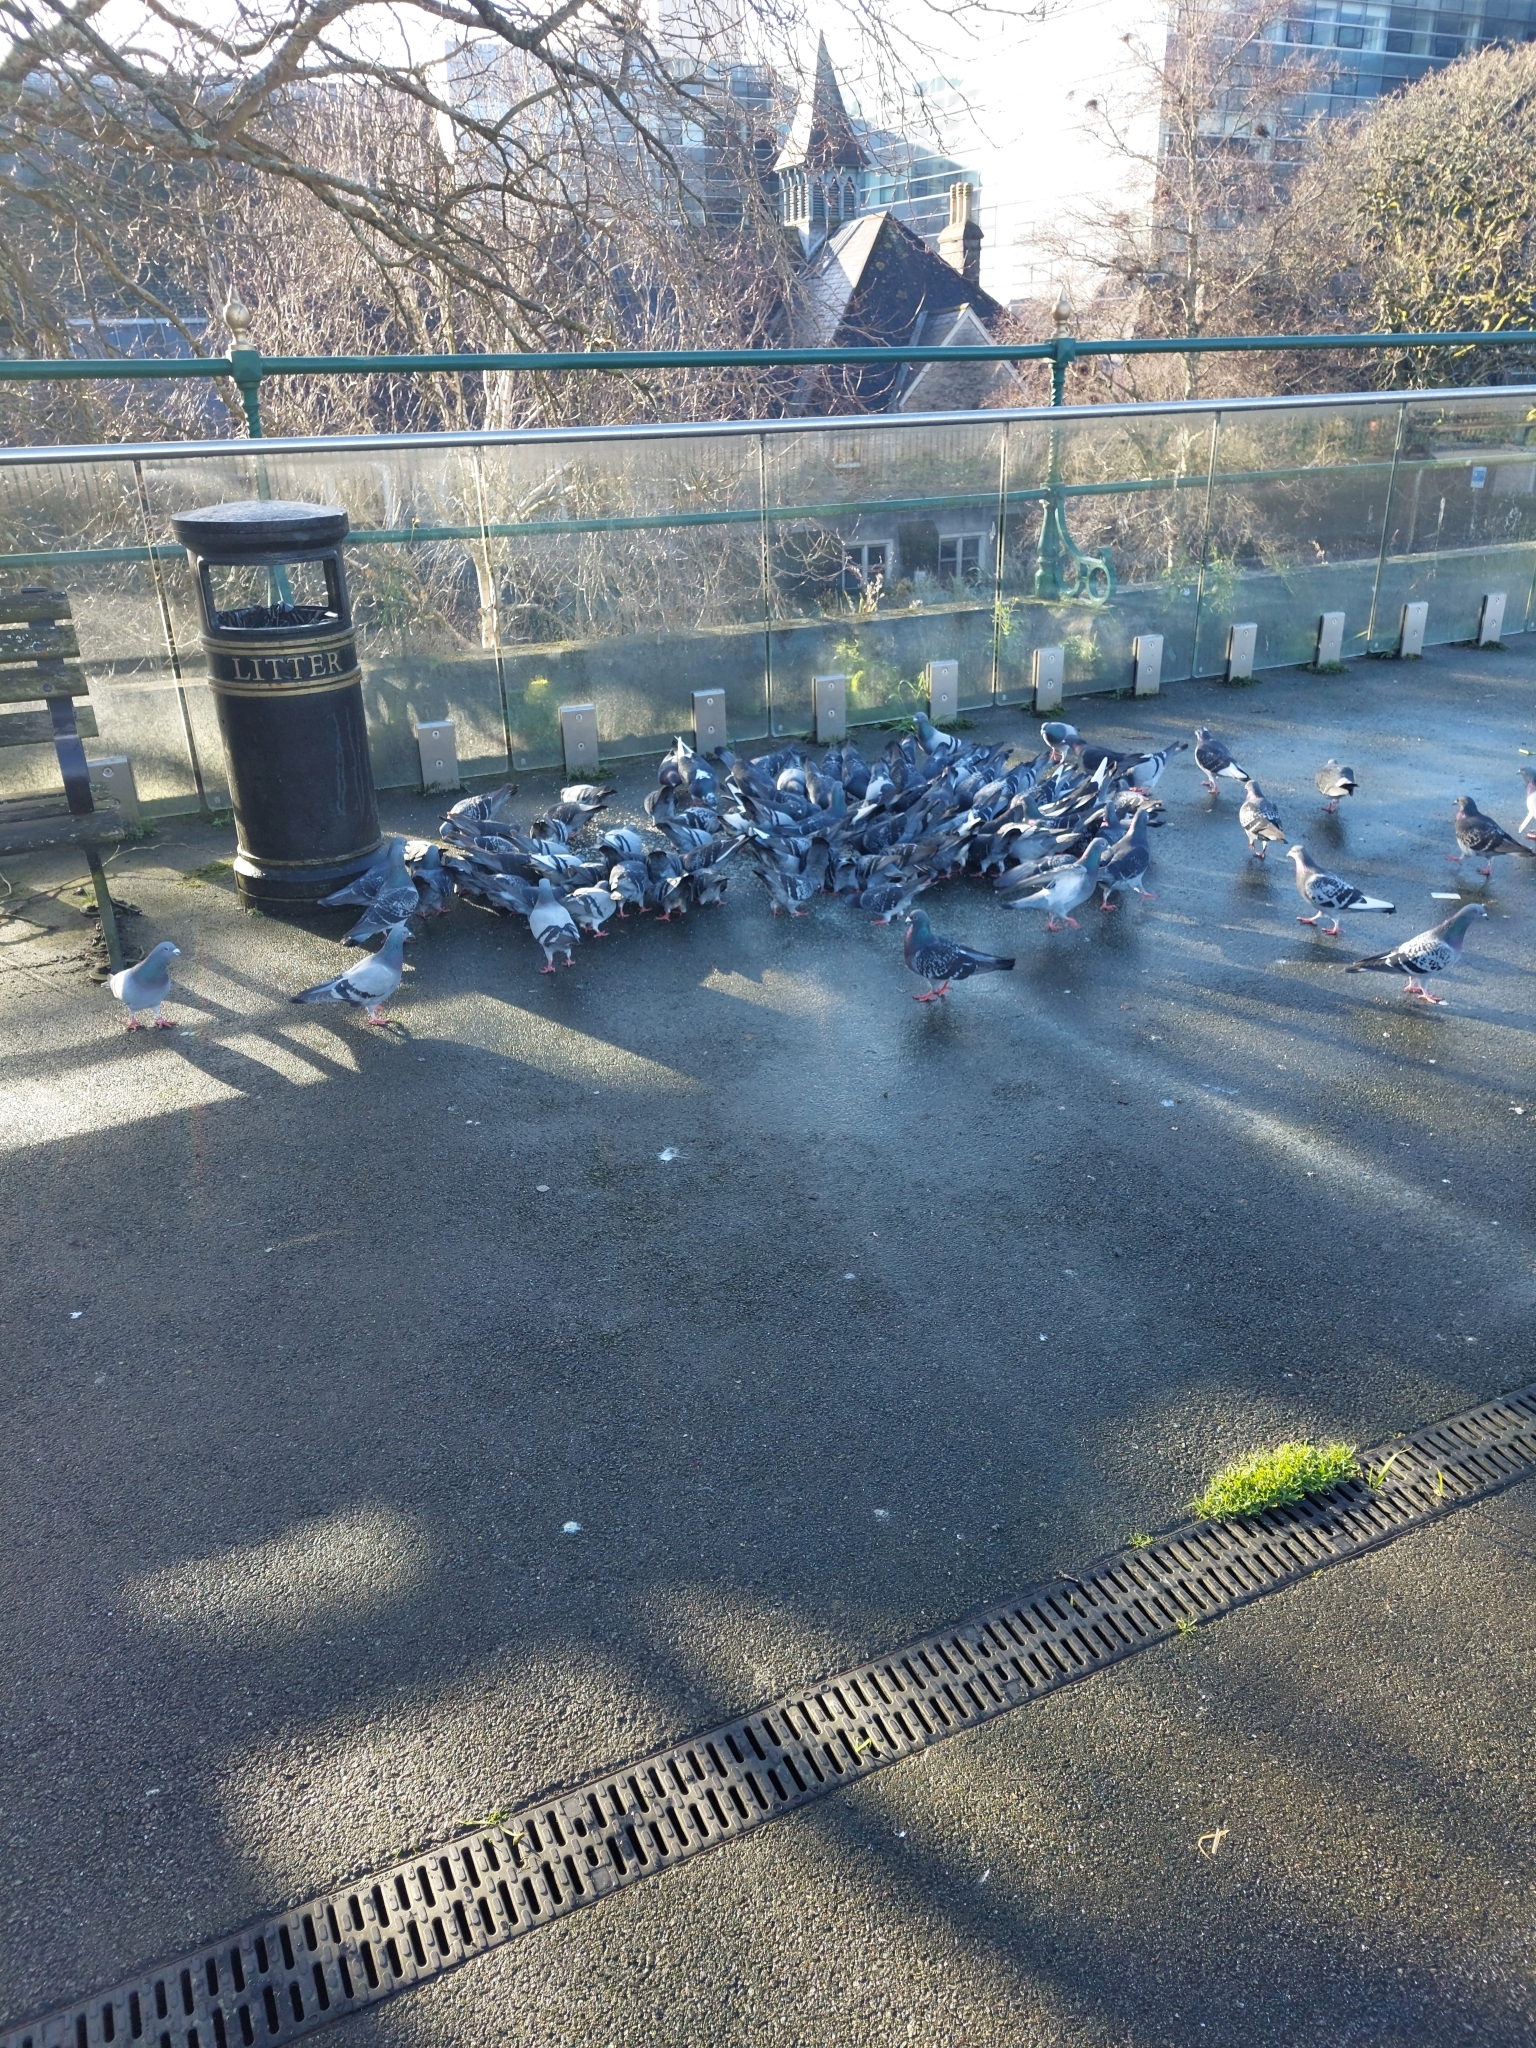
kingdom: Animalia
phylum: Chordata
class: Aves
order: Columbiformes
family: Columbidae
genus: Columba
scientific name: Columba livia
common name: Rock pigeon
